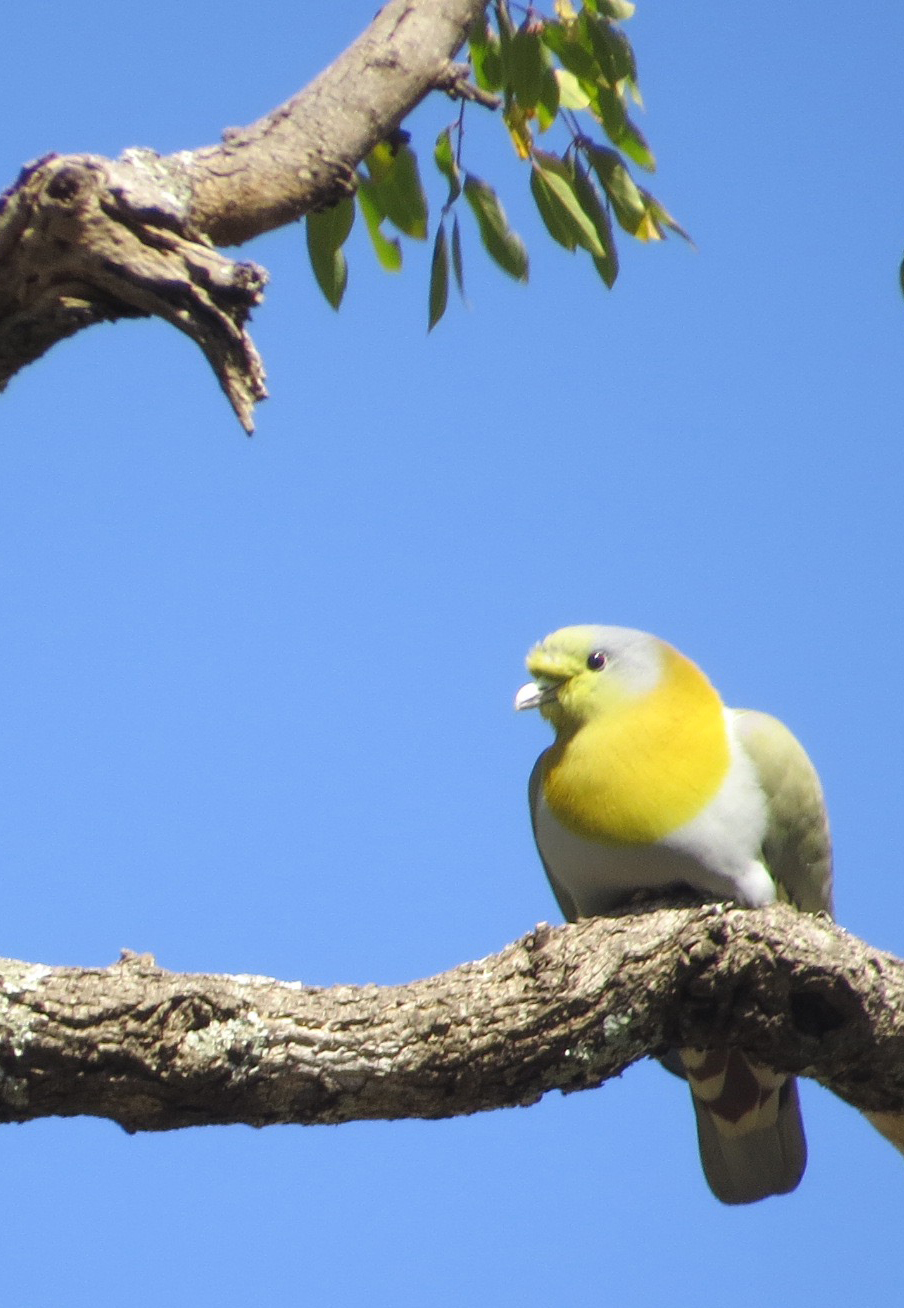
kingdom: Animalia
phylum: Chordata
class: Aves
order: Columbiformes
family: Columbidae
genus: Treron
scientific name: Treron phoenicopterus
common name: Yellow-footed green pigeon
